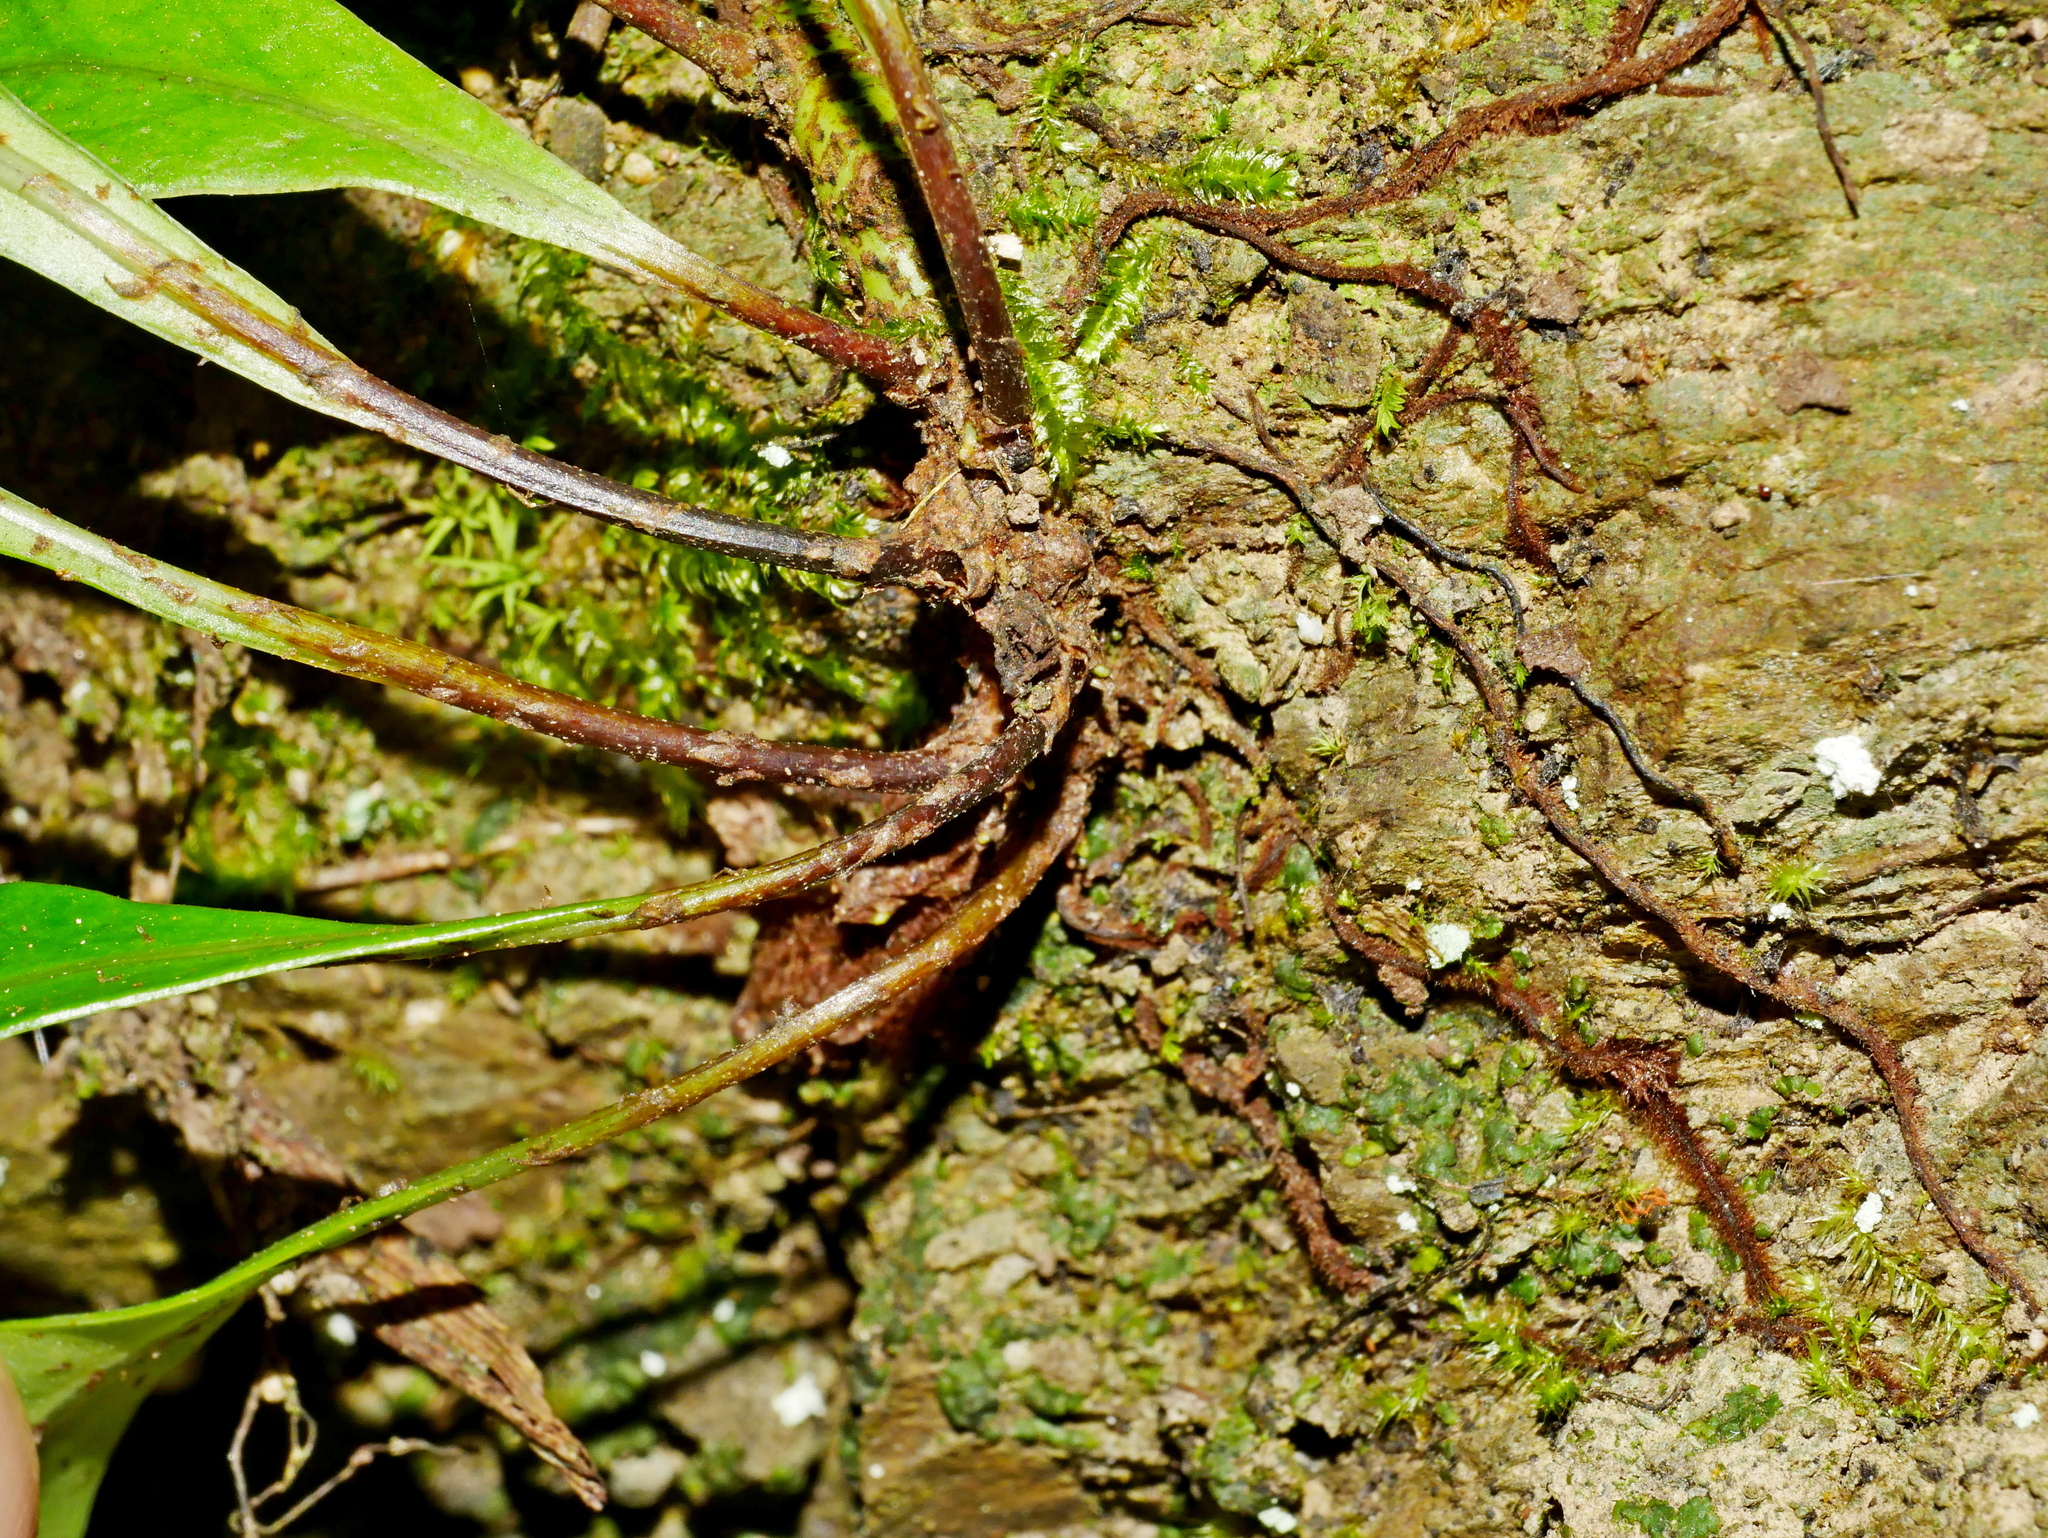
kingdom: Plantae
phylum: Tracheophyta
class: Polypodiopsida
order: Polypodiales
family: Polypodiaceae
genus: Lepisorus
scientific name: Lepisorus megasorus
